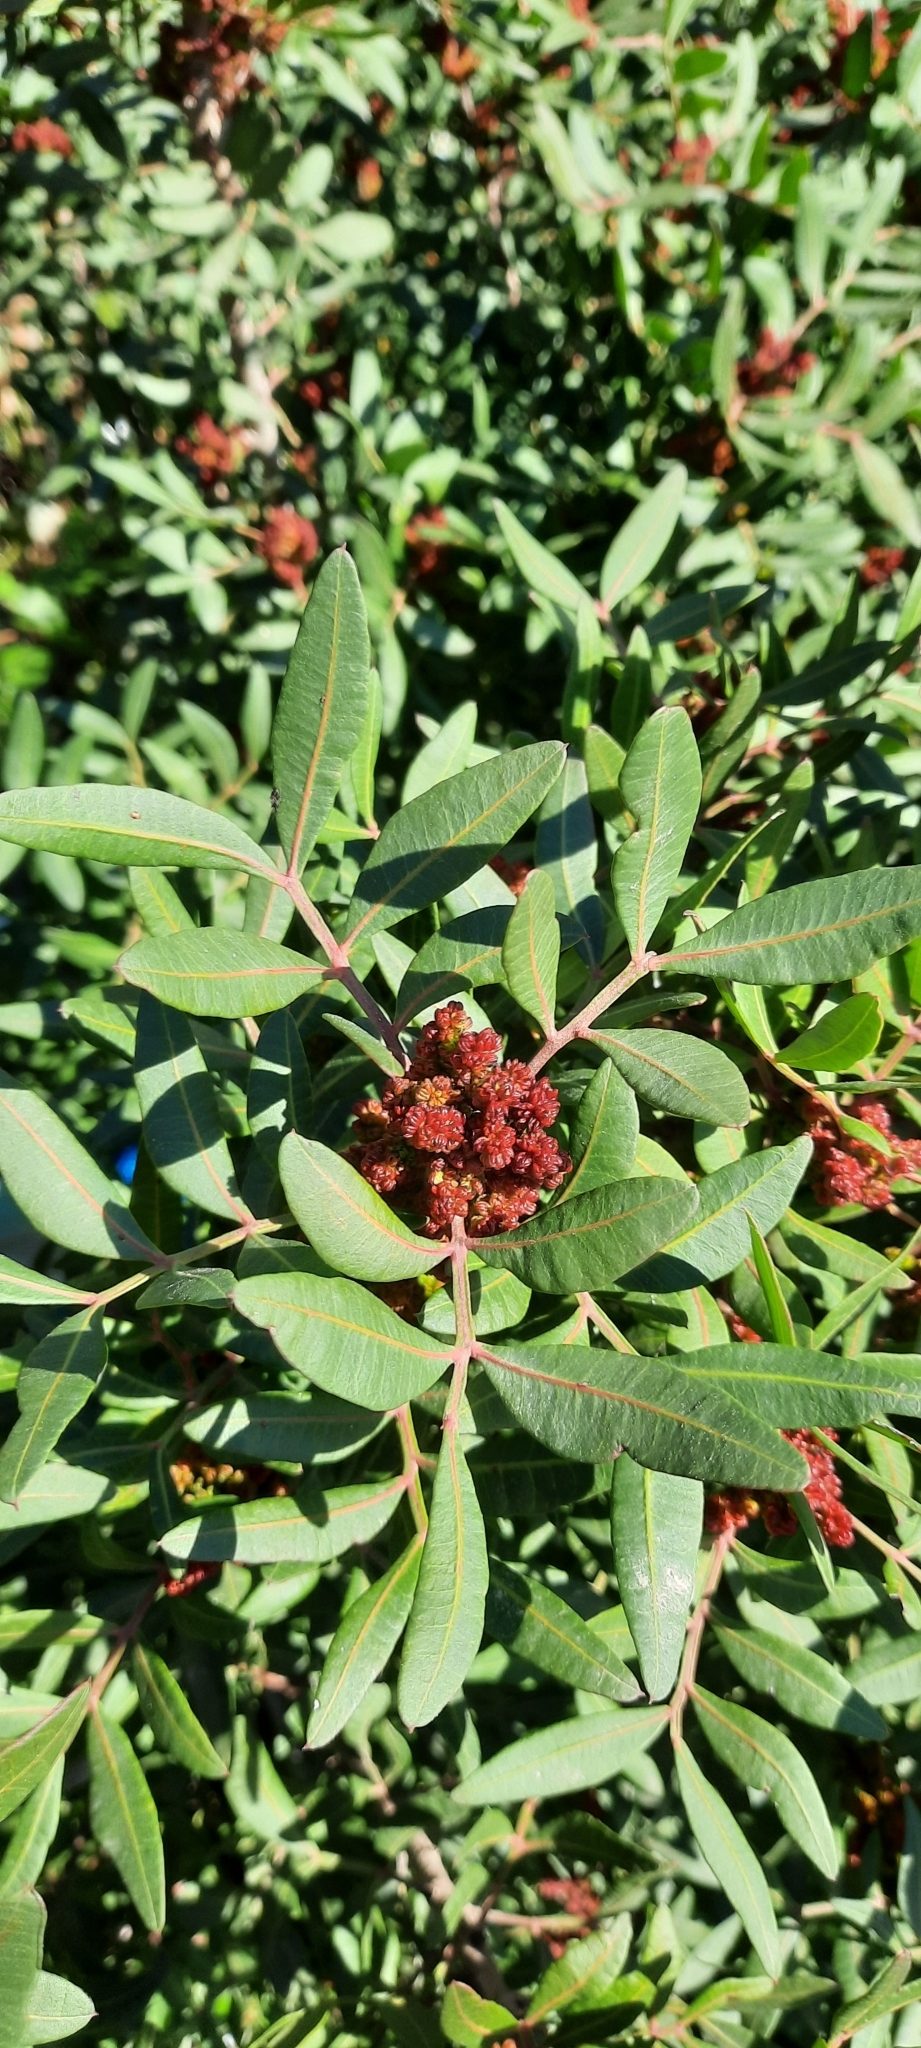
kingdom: Plantae
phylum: Tracheophyta
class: Magnoliopsida
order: Sapindales
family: Anacardiaceae
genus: Pistacia
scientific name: Pistacia lentiscus
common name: Lentisk
